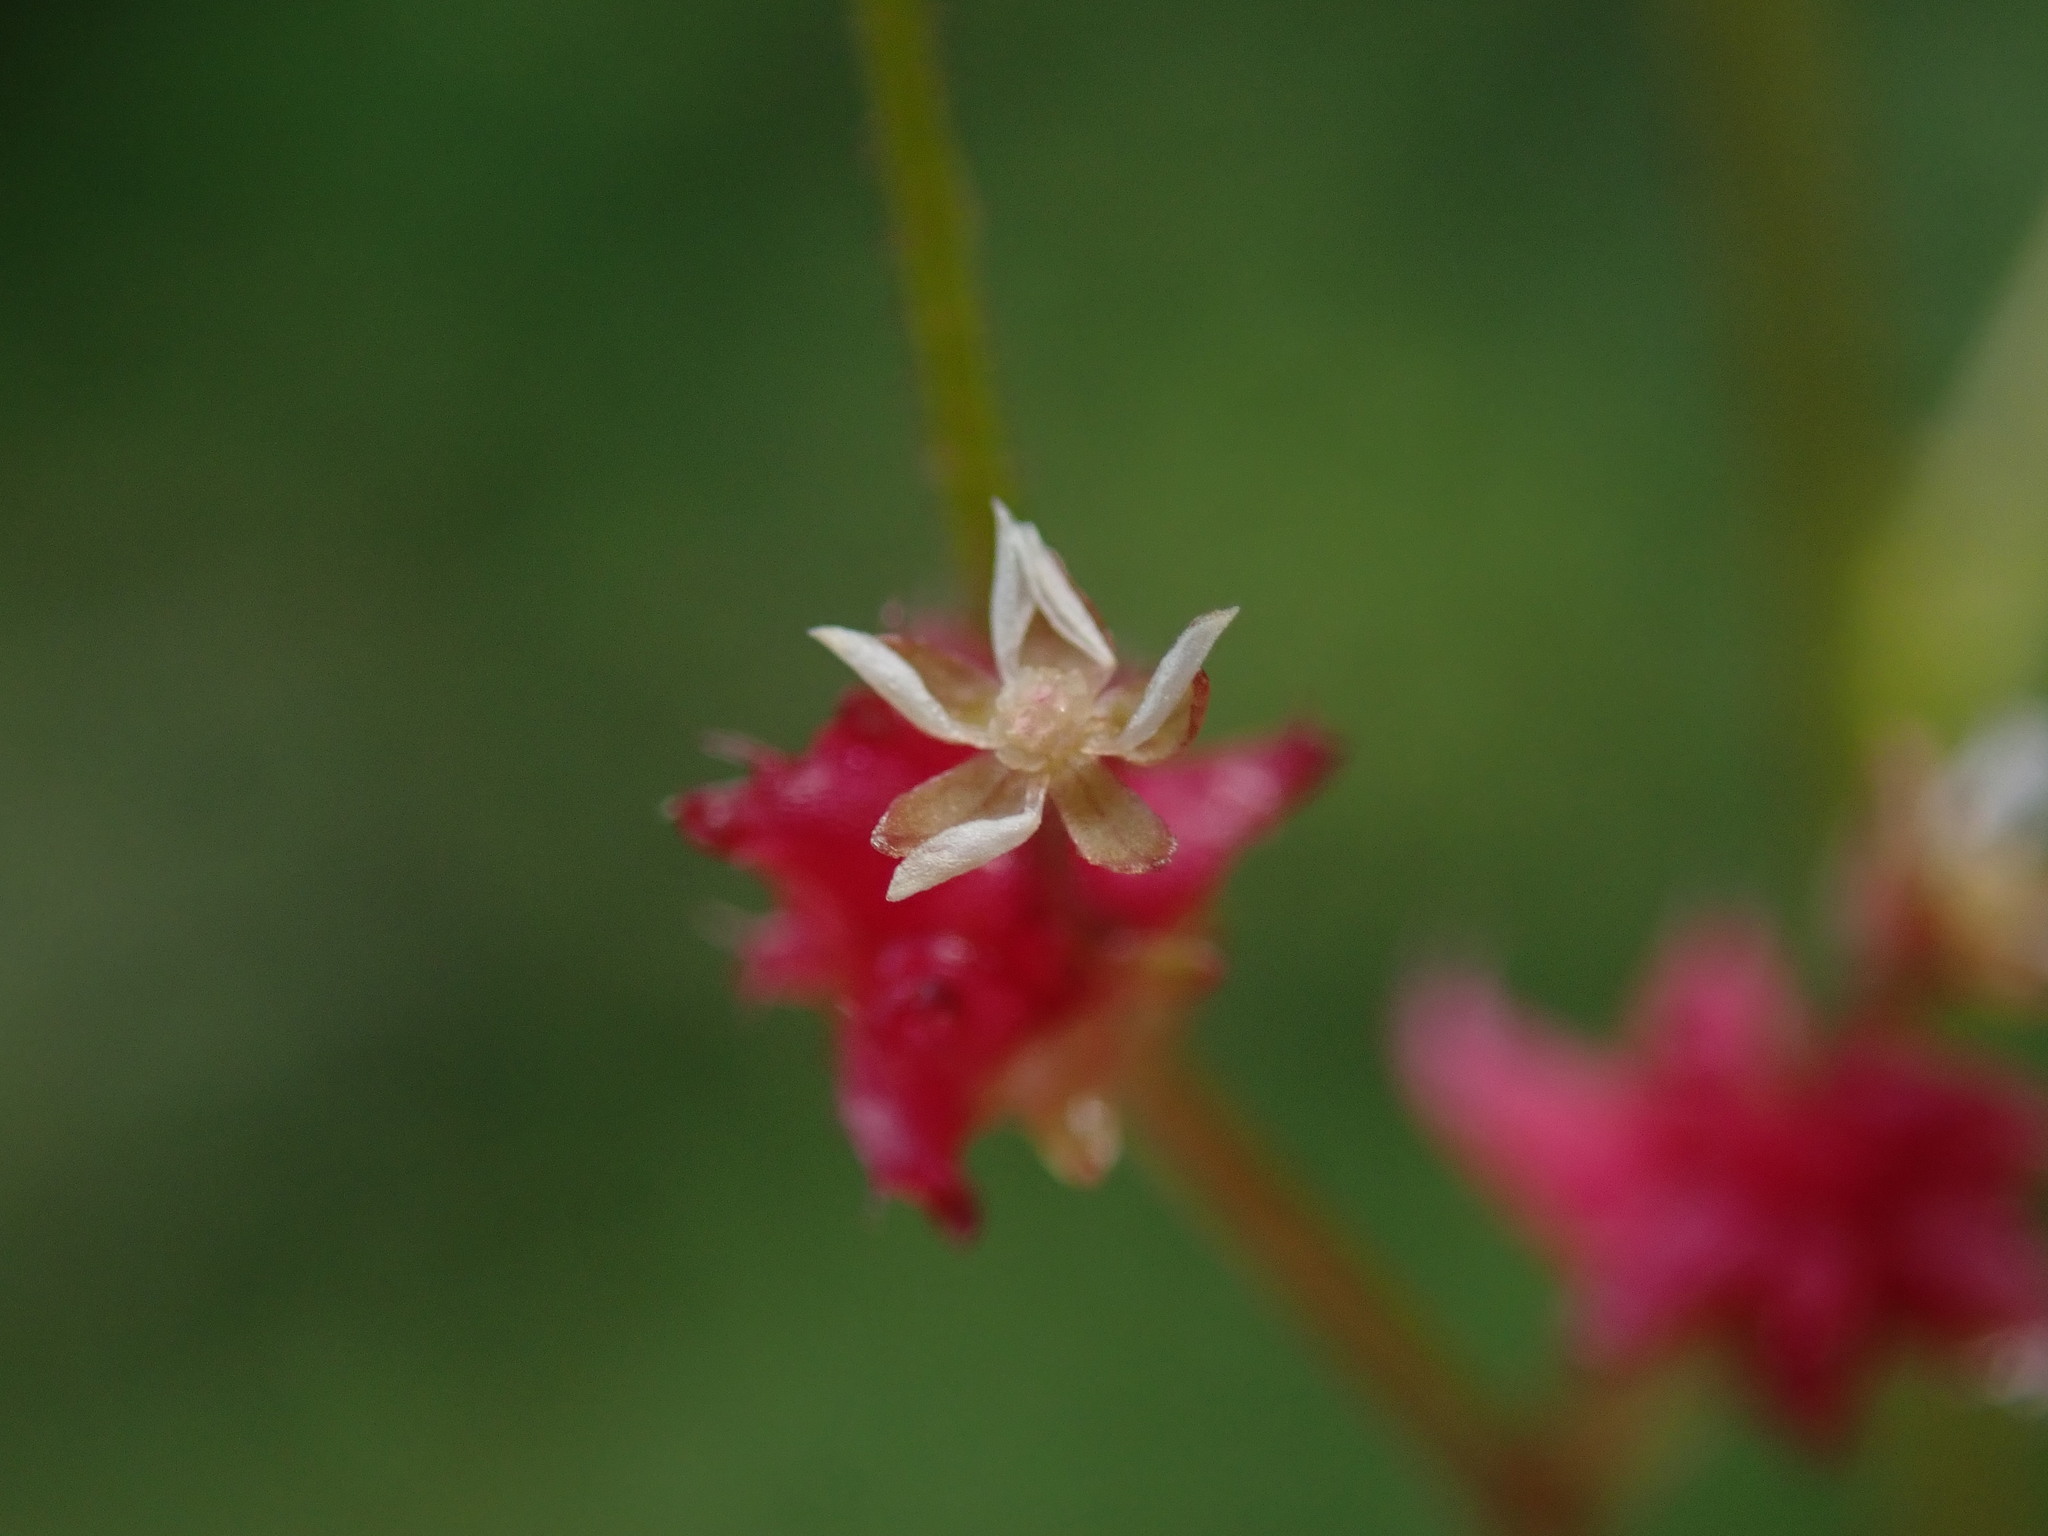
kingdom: Plantae
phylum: Tracheophyta
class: Magnoliopsida
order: Saxifragales
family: Saxifragaceae
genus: Micranthes
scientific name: Micranthes mertensiana
